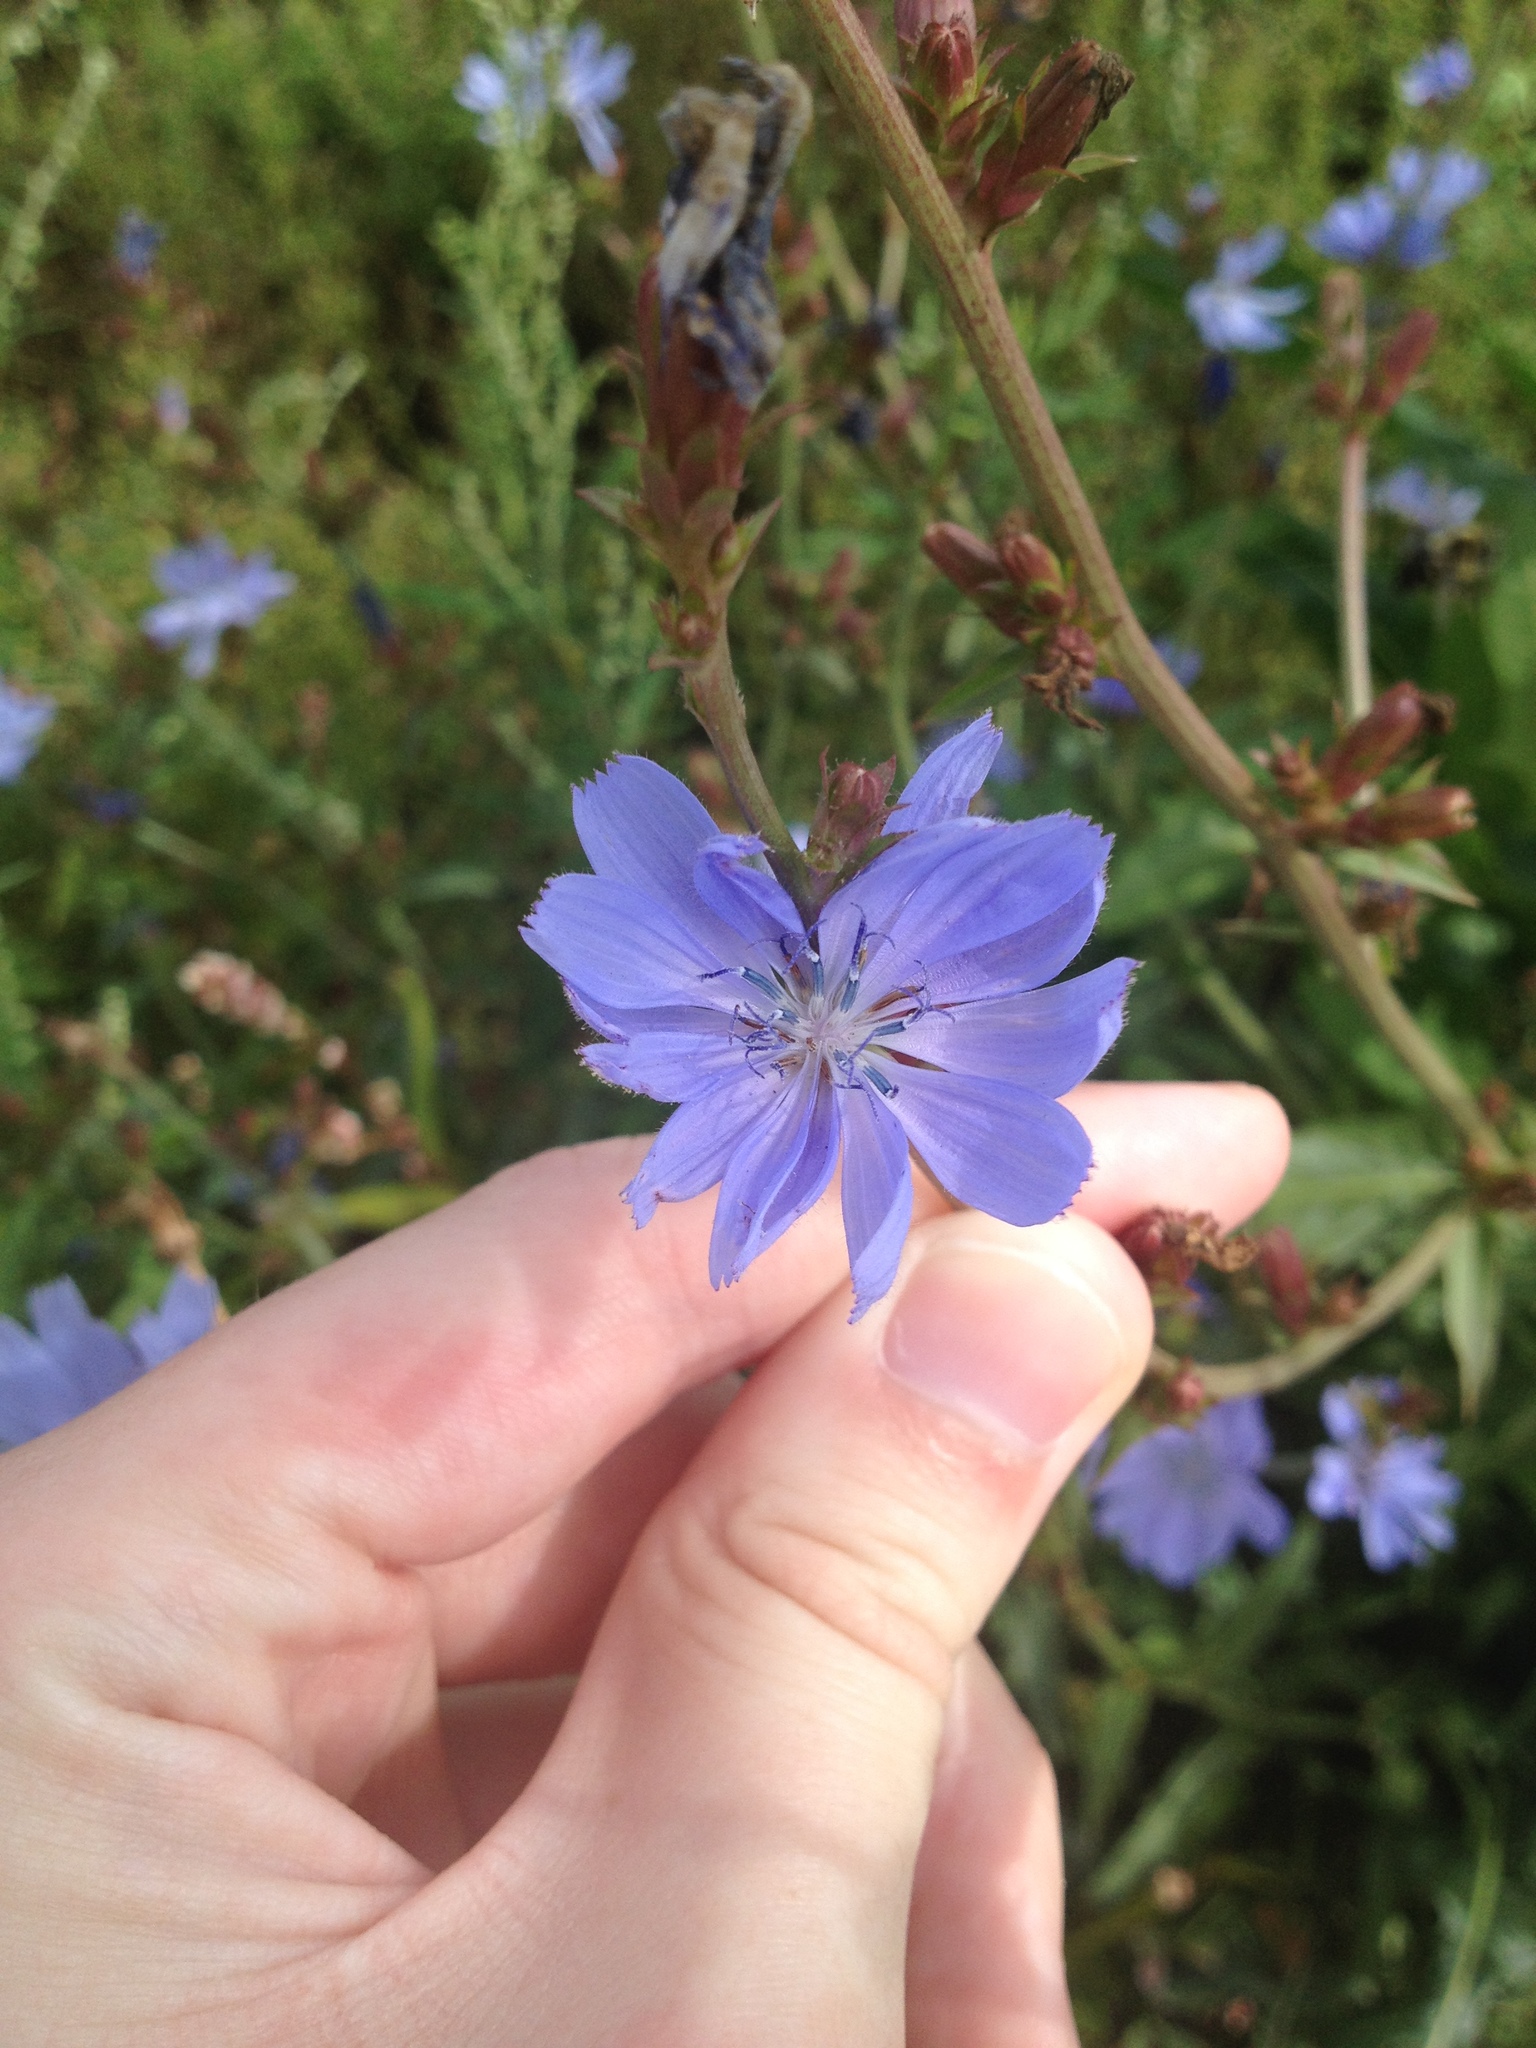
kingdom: Plantae
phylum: Tracheophyta
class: Magnoliopsida
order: Asterales
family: Asteraceae
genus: Cichorium
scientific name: Cichorium intybus
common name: Chicory
